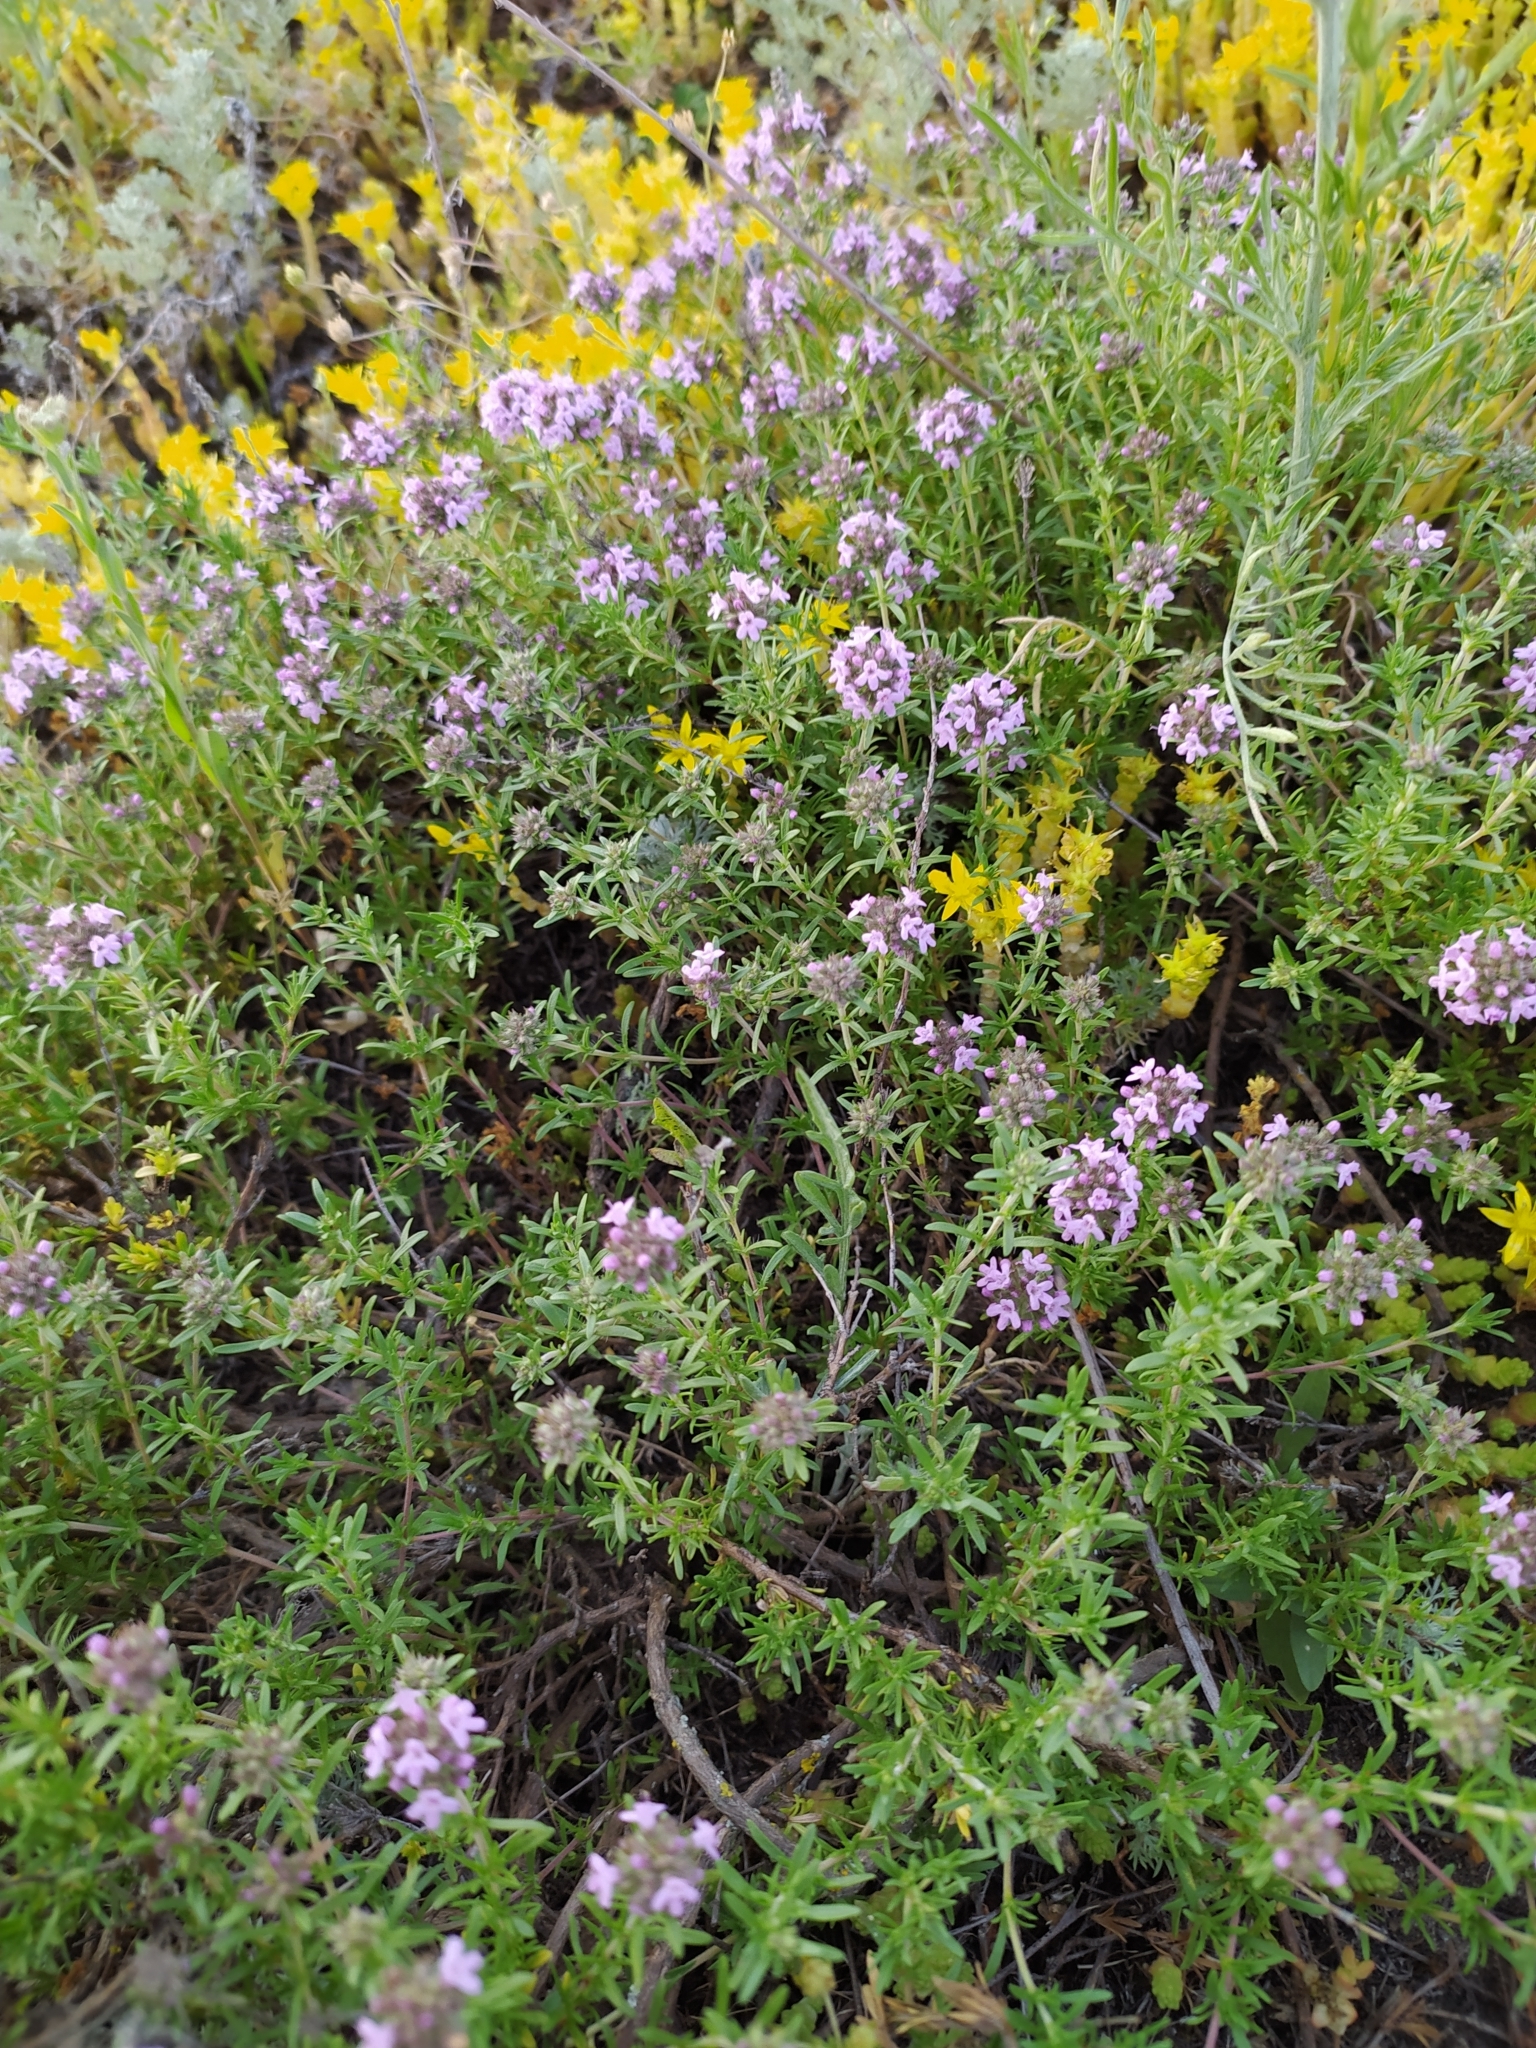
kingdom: Plantae
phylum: Tracheophyta
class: Magnoliopsida
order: Lamiales
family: Lamiaceae
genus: Thymus
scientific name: Thymus pallasianus
